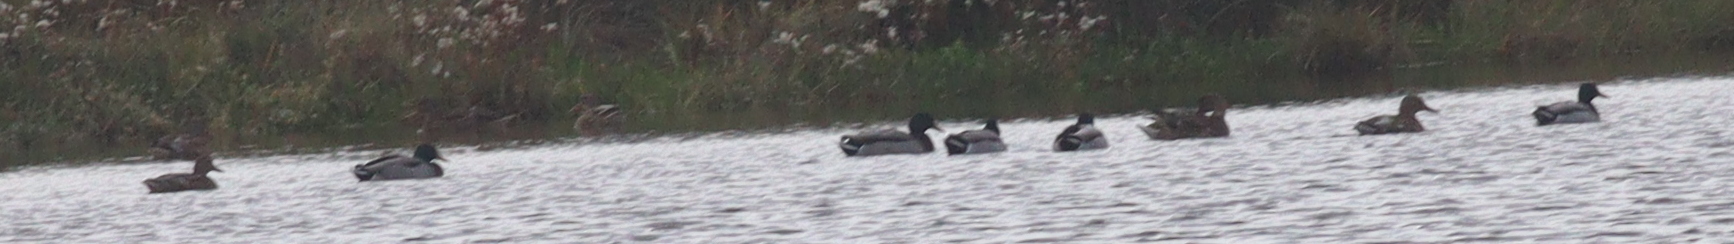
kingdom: Animalia
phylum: Chordata
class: Aves
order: Anseriformes
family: Anatidae
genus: Anas
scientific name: Anas platyrhynchos
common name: Mallard
